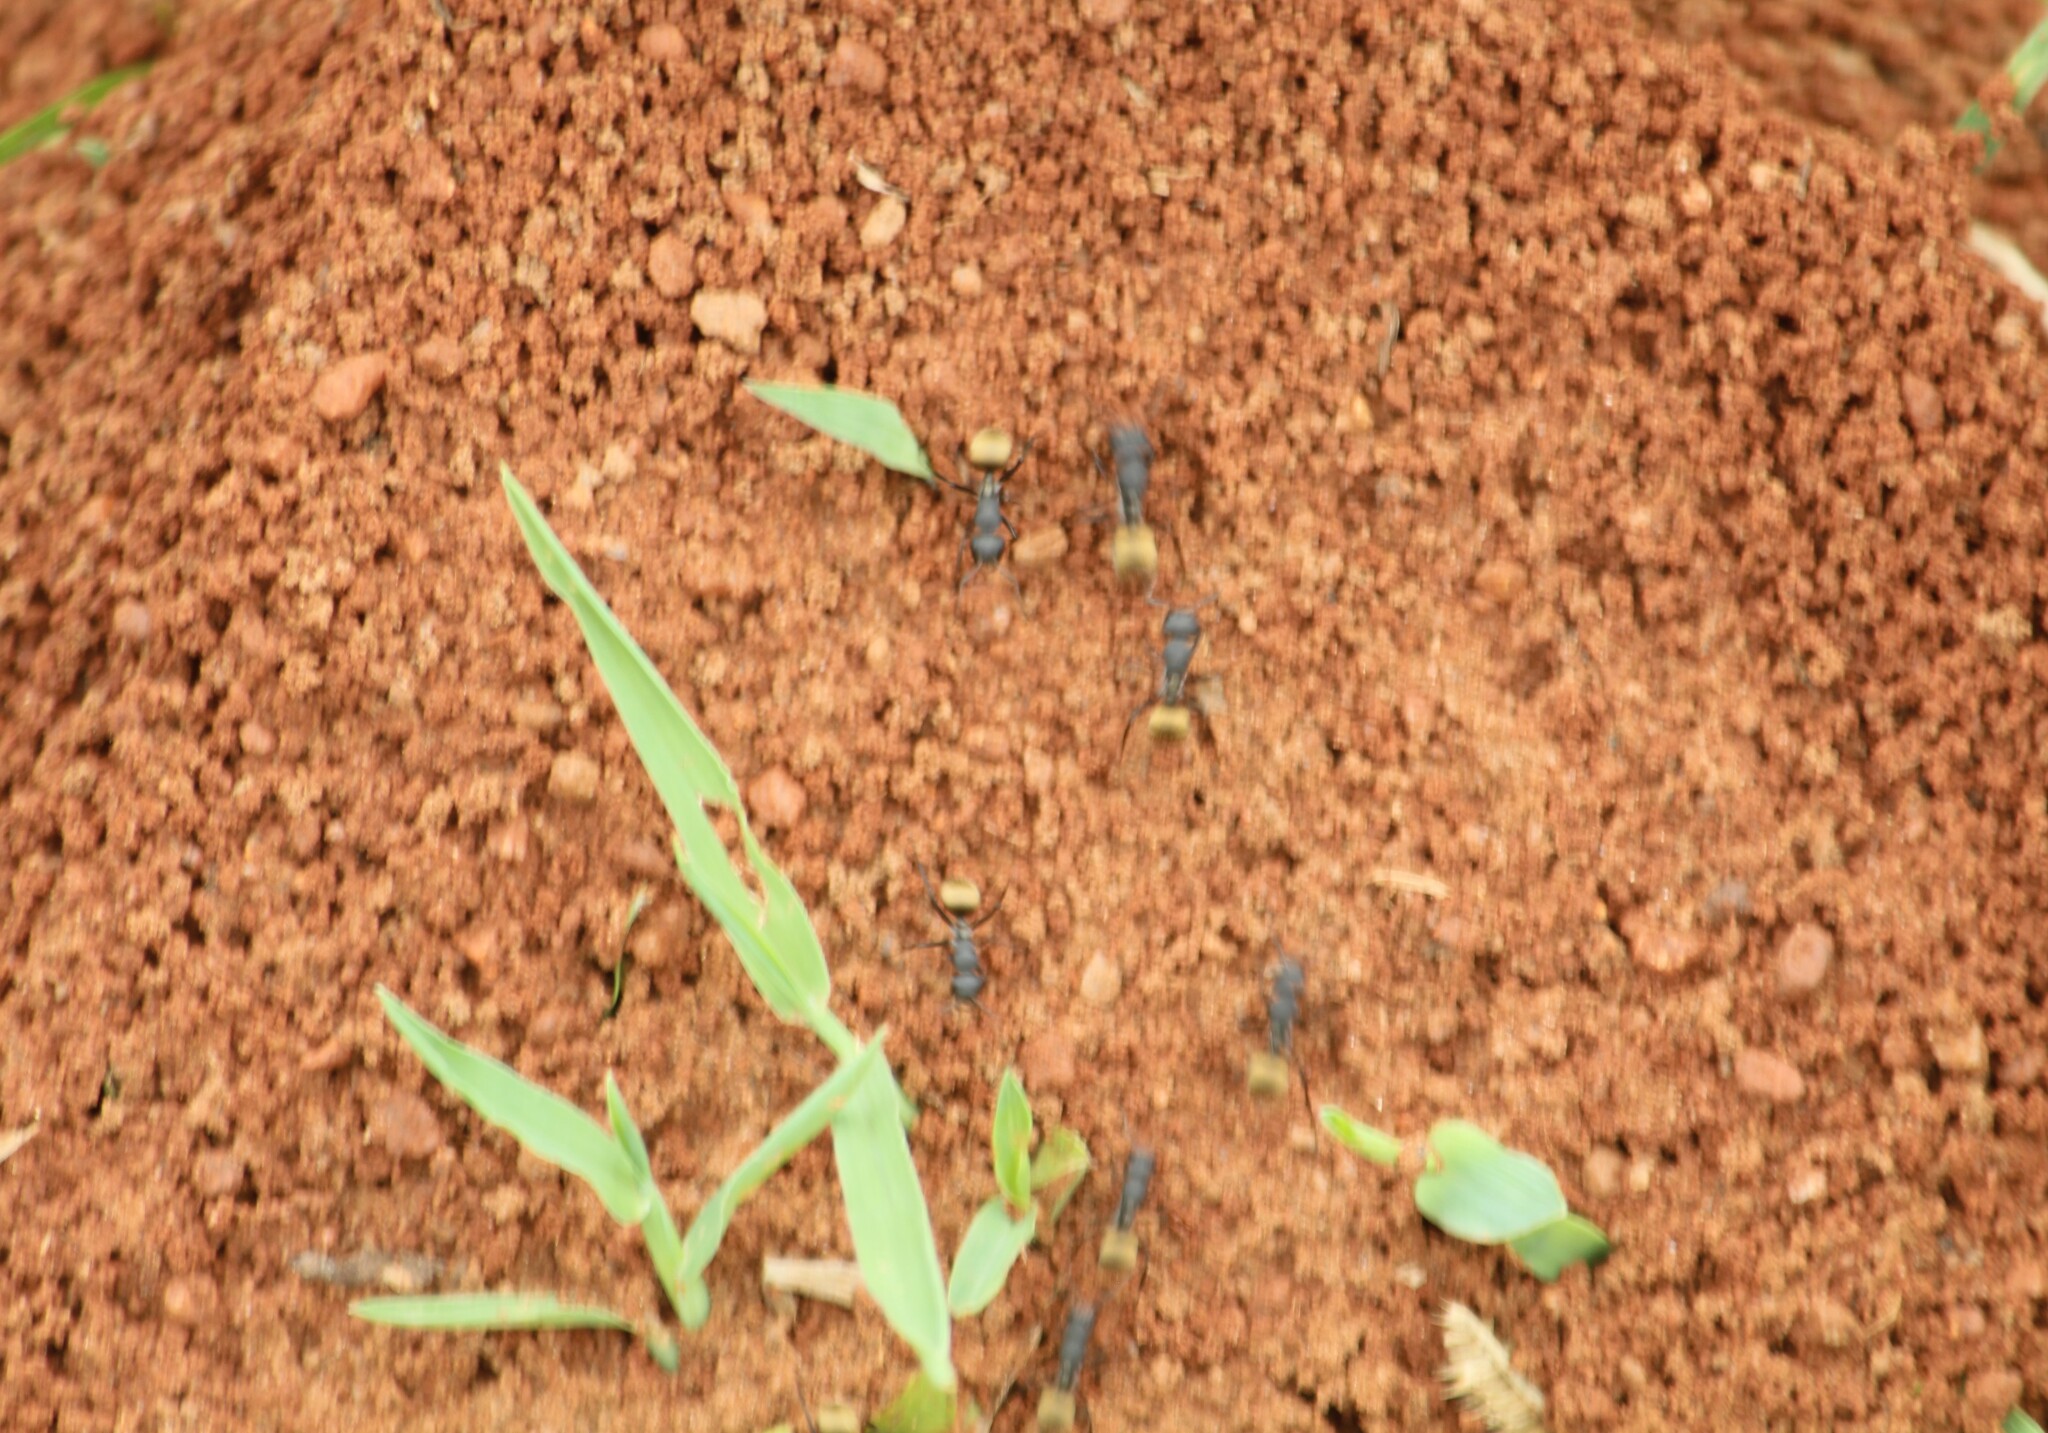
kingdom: Animalia
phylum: Arthropoda
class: Insecta
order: Hymenoptera
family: Formicidae
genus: Camponotus
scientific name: Camponotus sericeus
